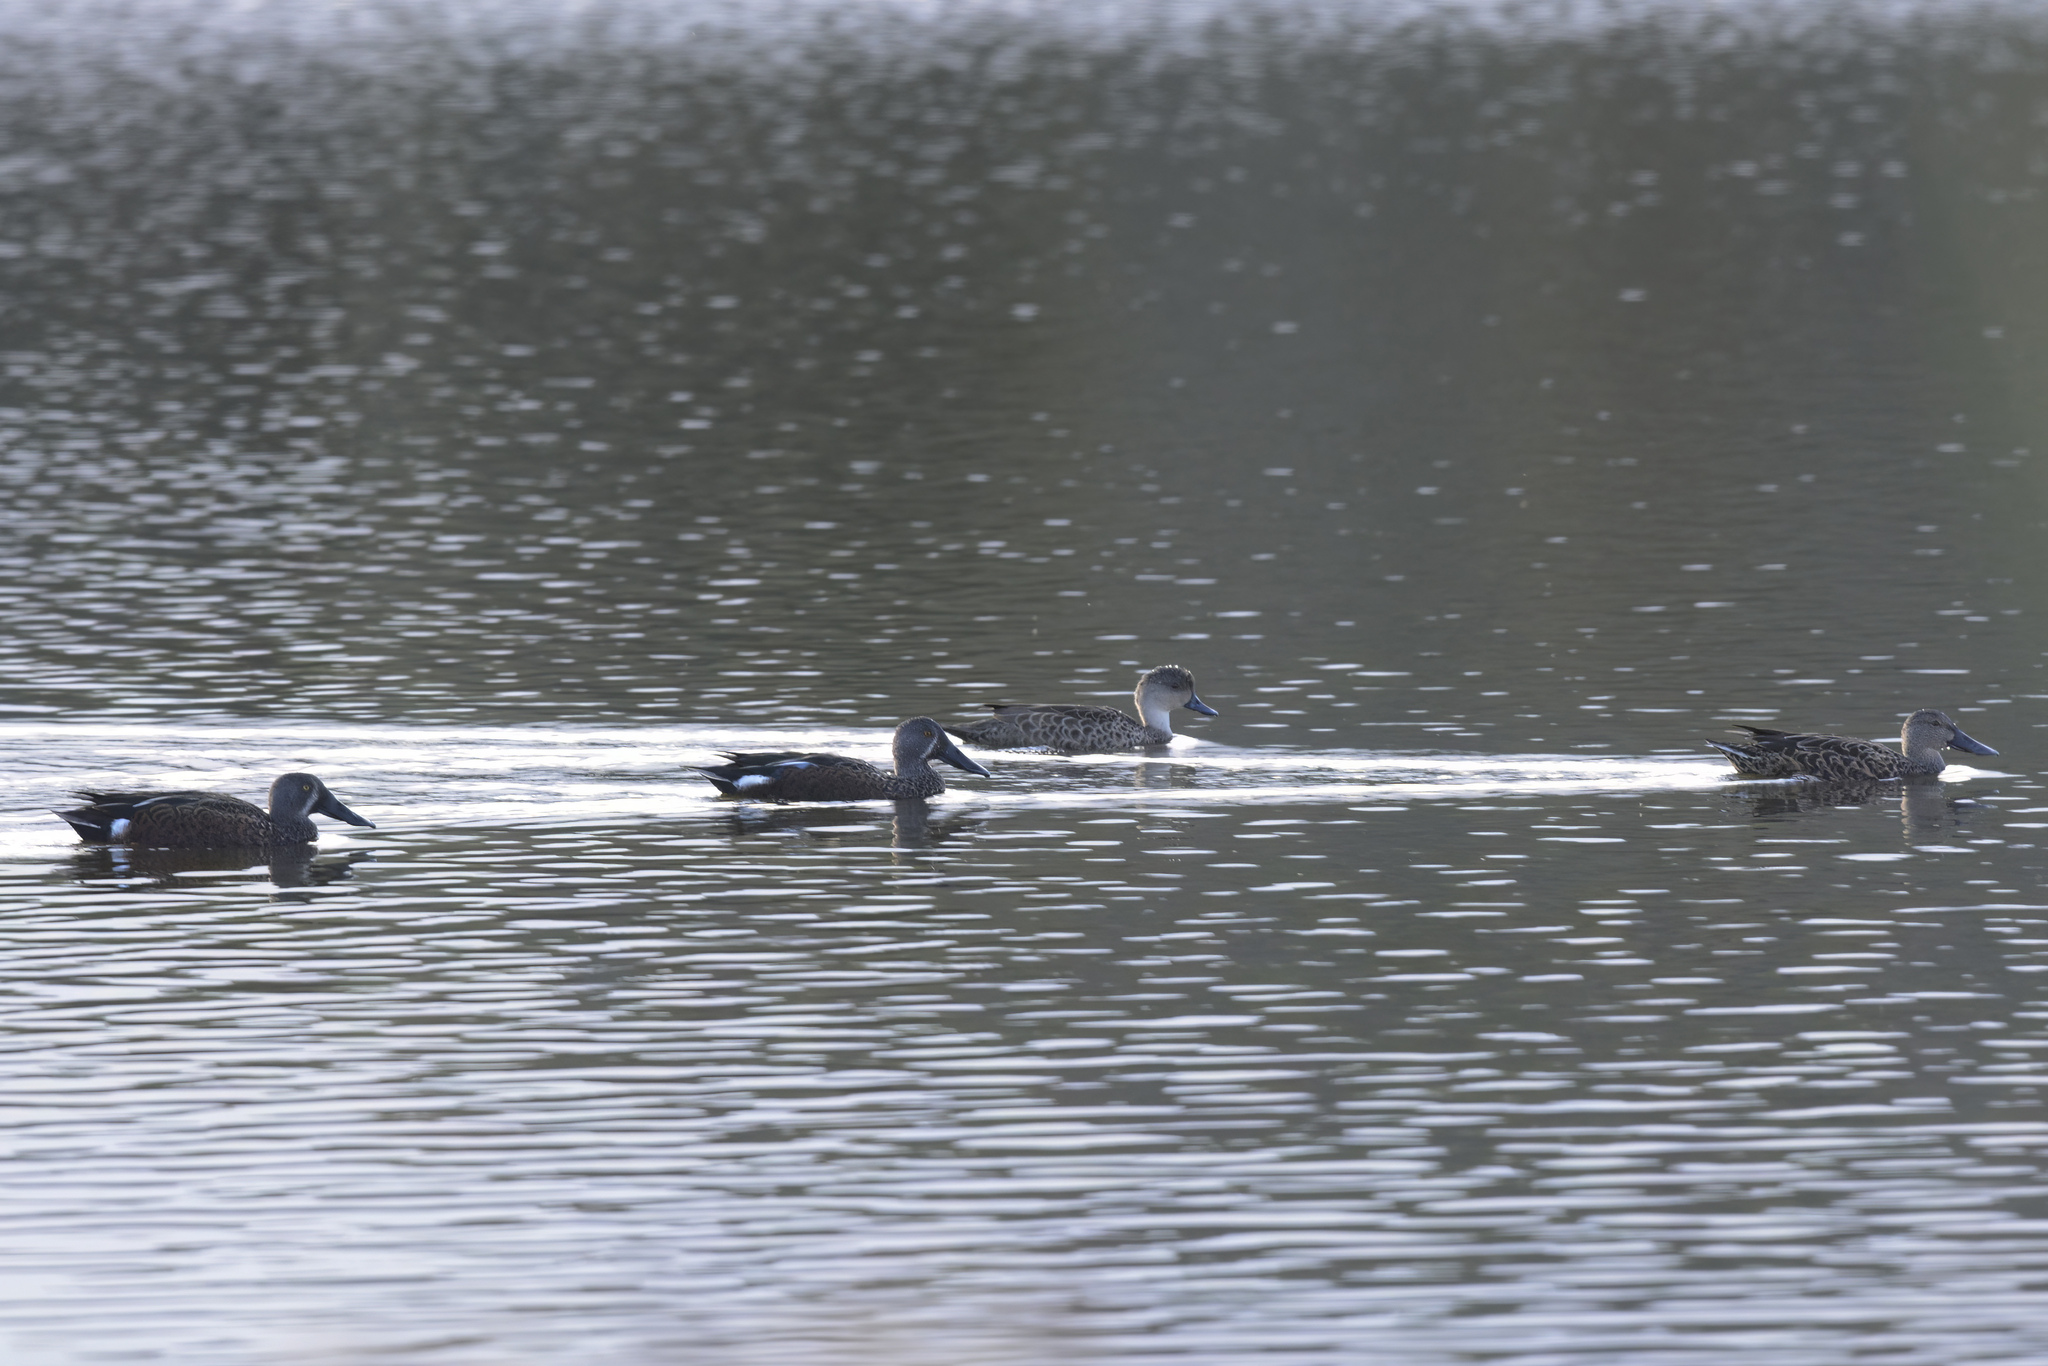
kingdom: Animalia
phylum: Chordata
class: Aves
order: Anseriformes
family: Anatidae
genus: Spatula
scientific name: Spatula rhynchotis
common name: Australian shoveler
